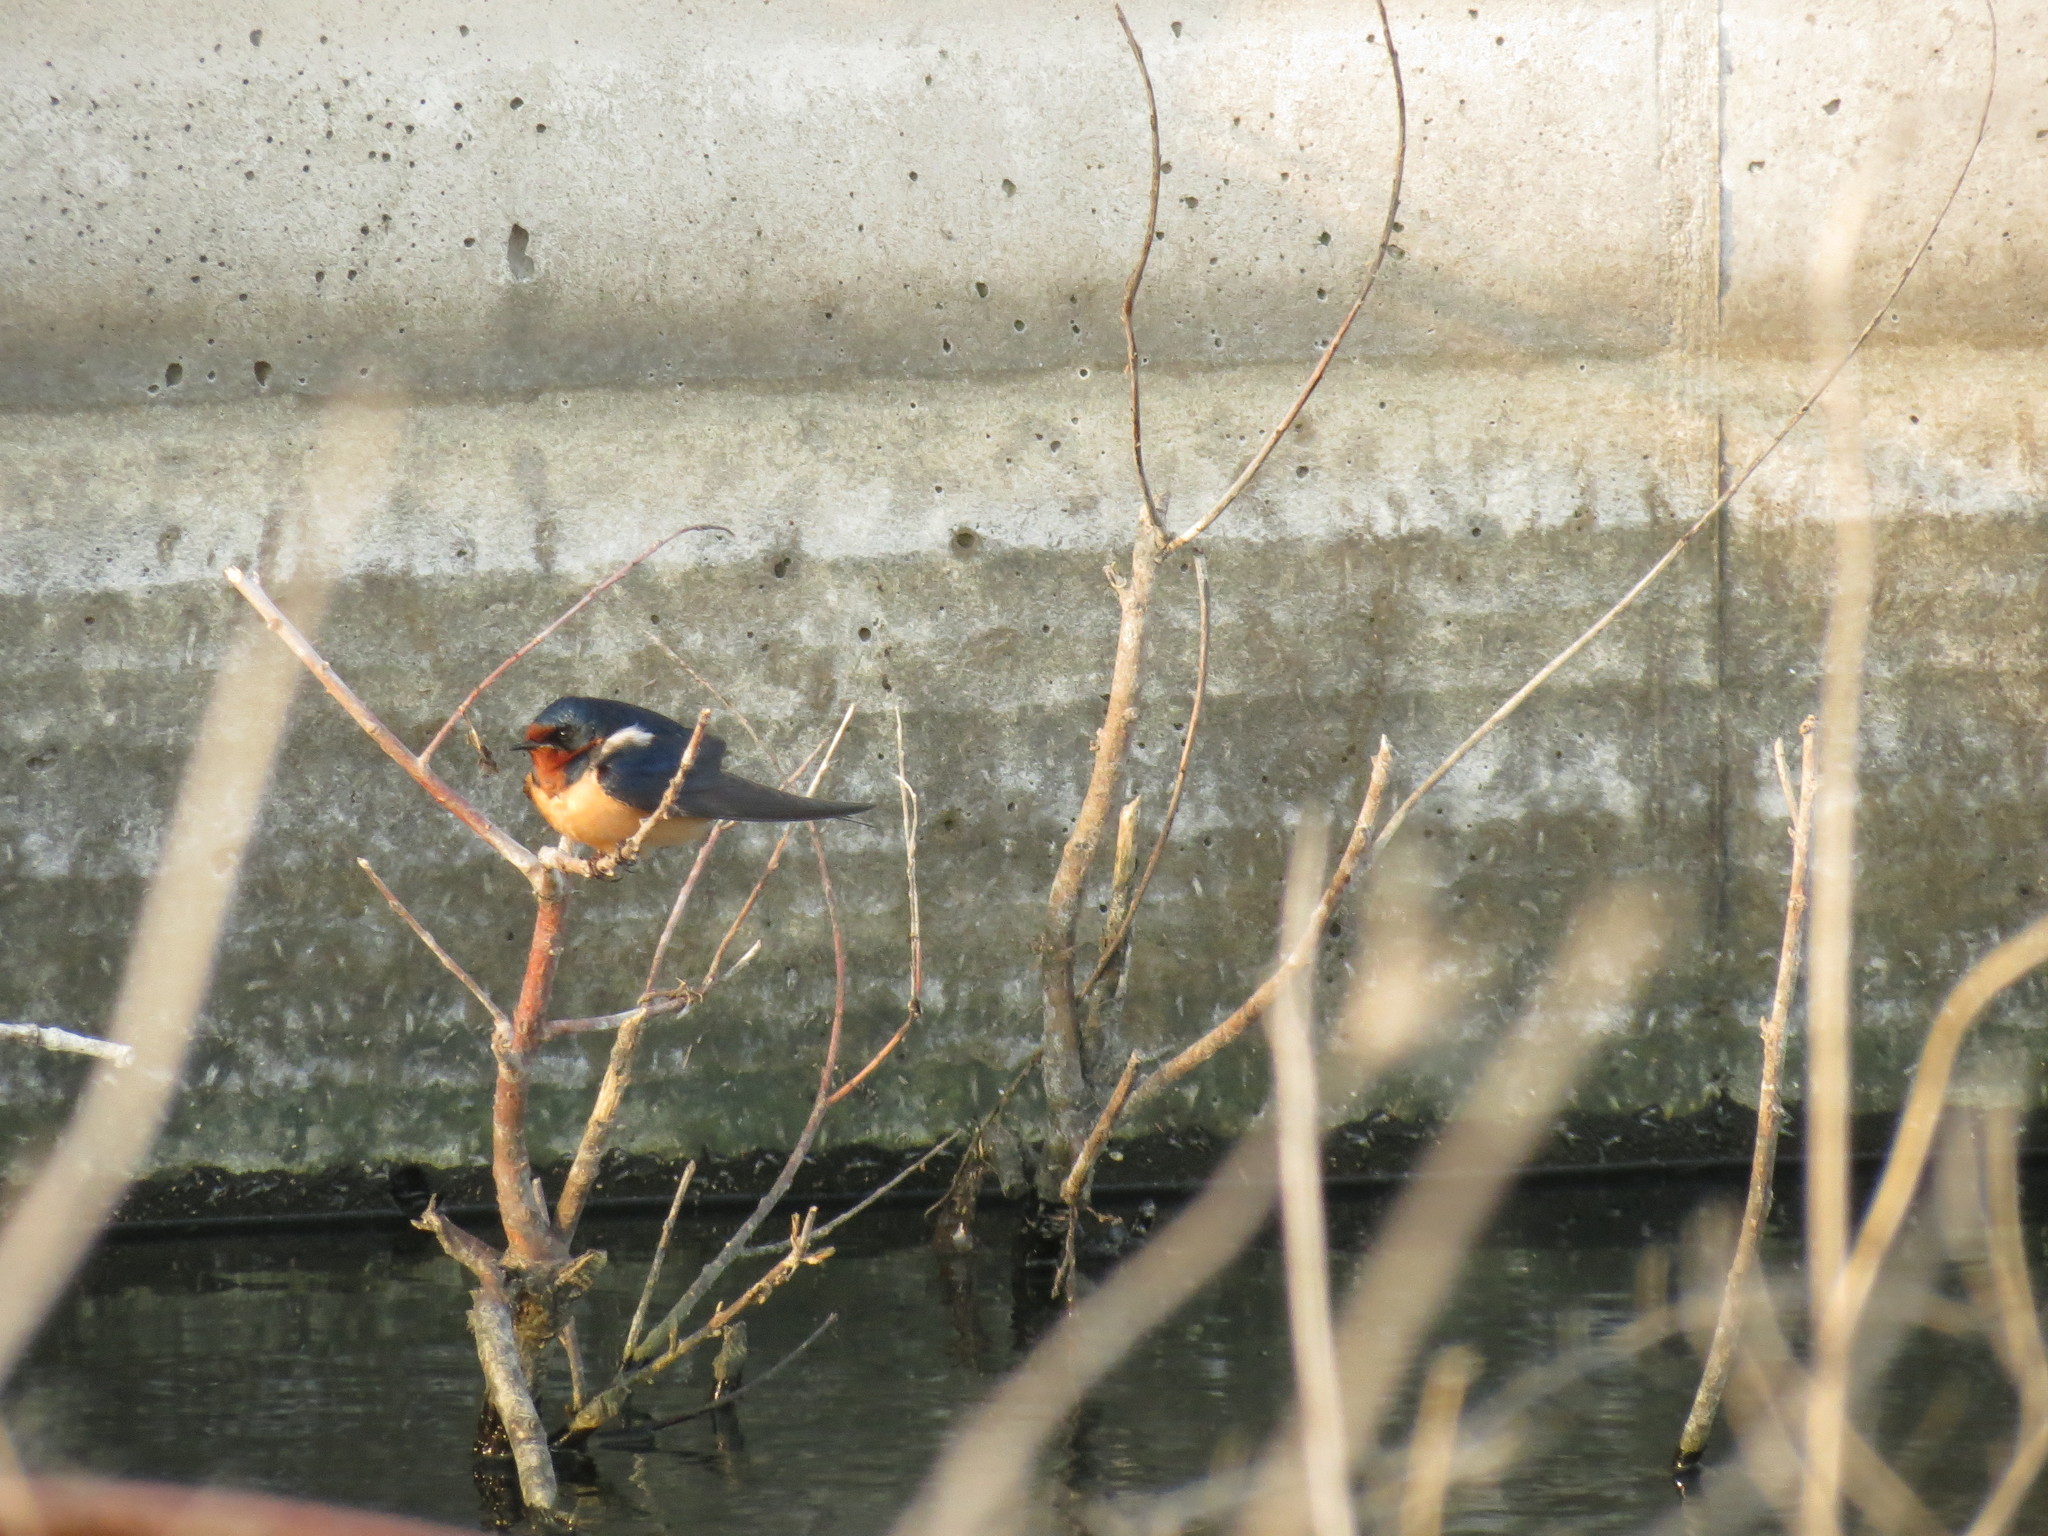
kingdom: Animalia
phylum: Chordata
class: Aves
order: Passeriformes
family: Hirundinidae
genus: Hirundo
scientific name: Hirundo rustica
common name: Barn swallow
